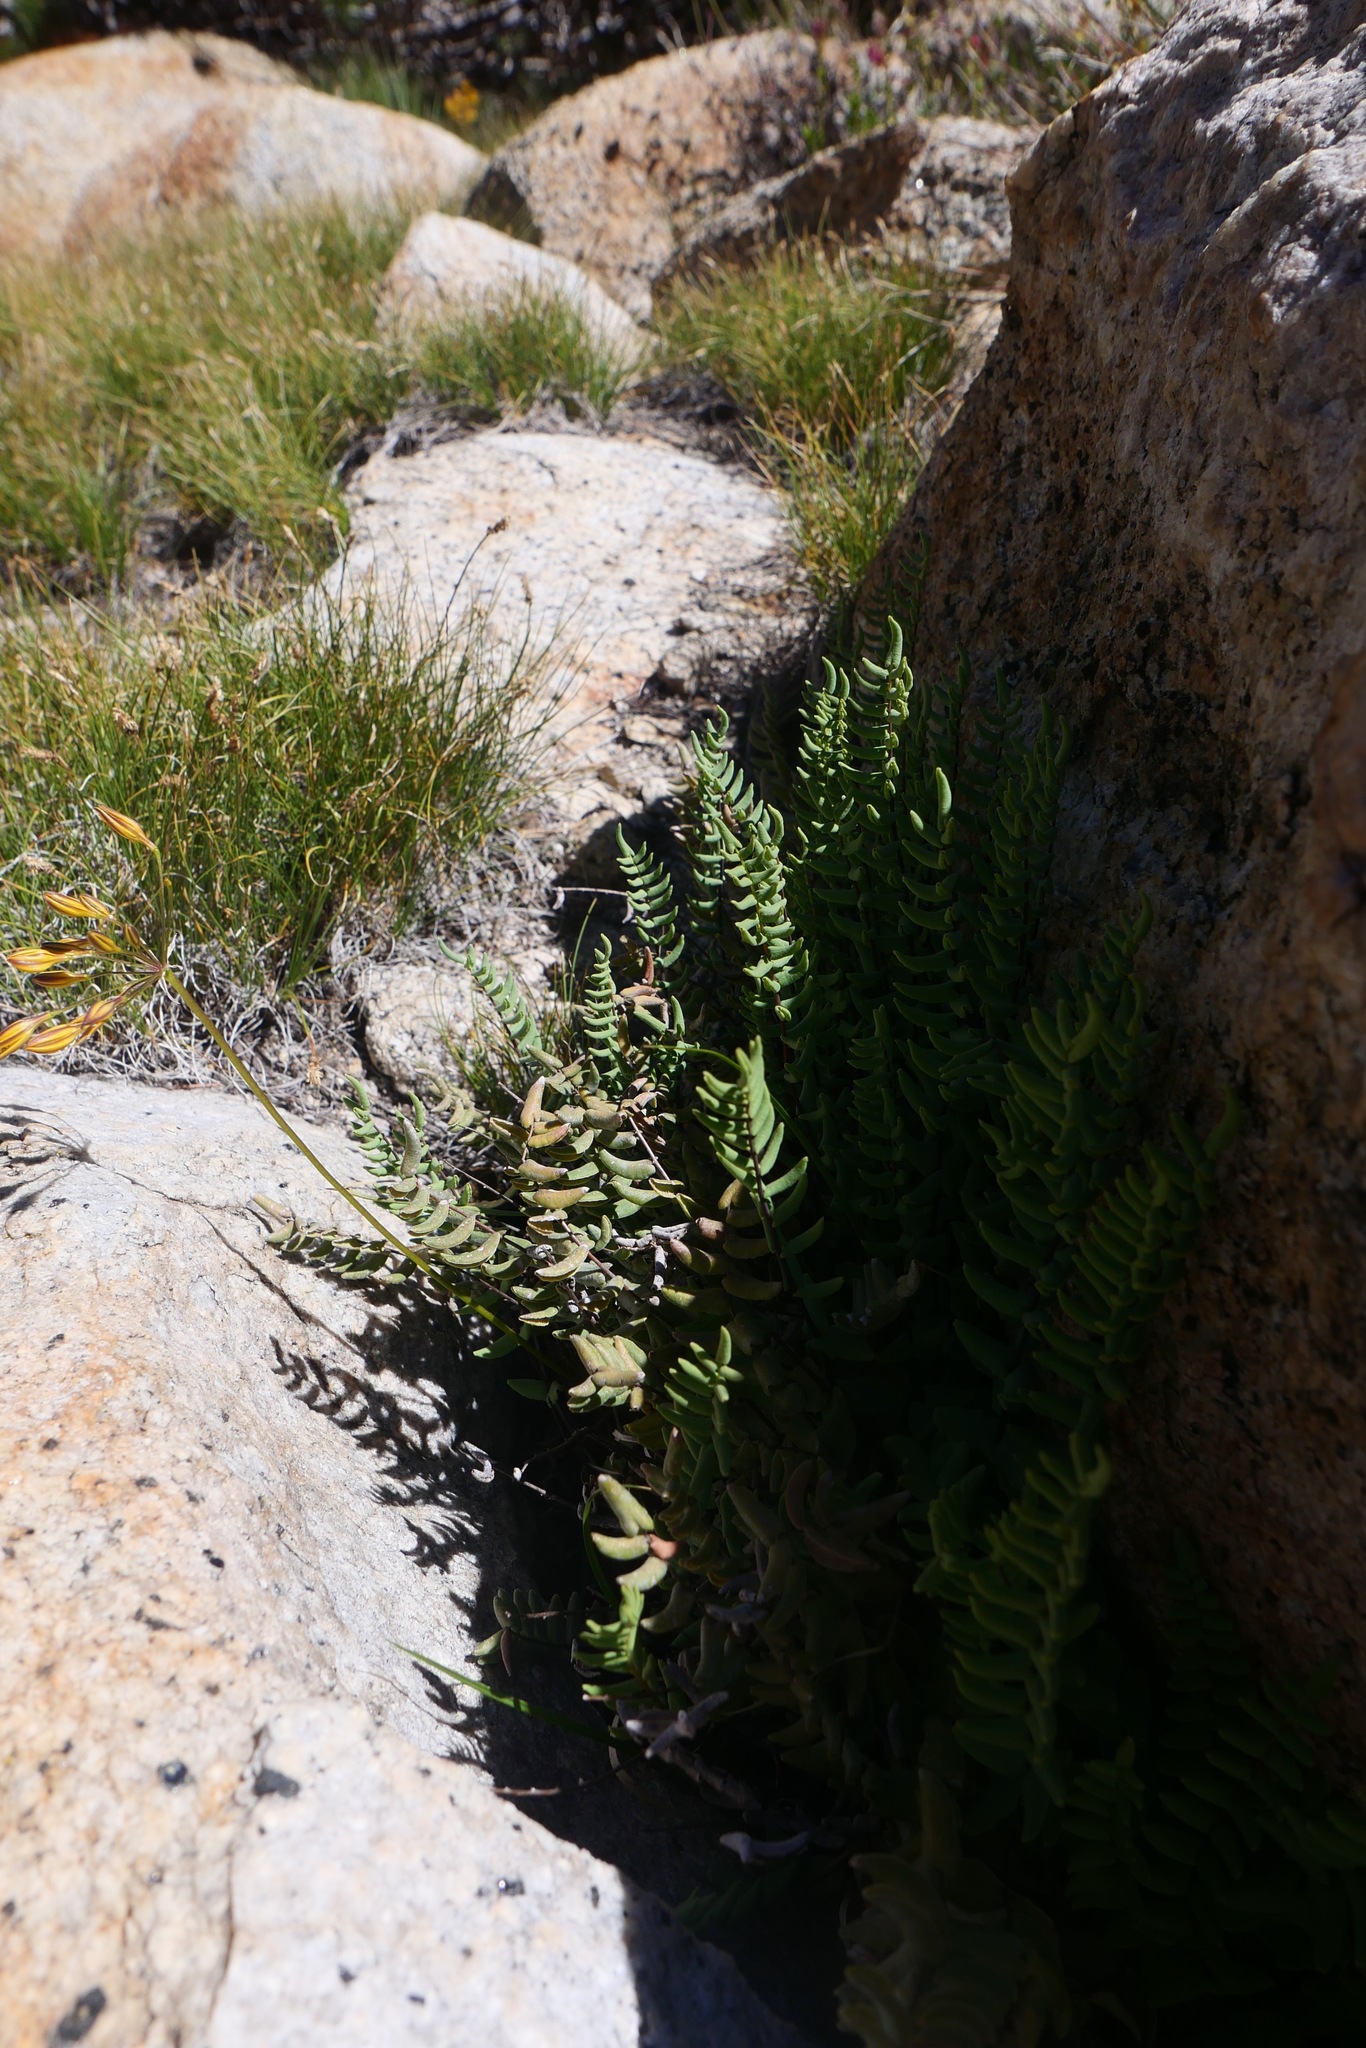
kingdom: Plantae
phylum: Tracheophyta
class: Polypodiopsida
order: Polypodiales
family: Pteridaceae
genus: Pellaea
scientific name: Pellaea bridgesii
